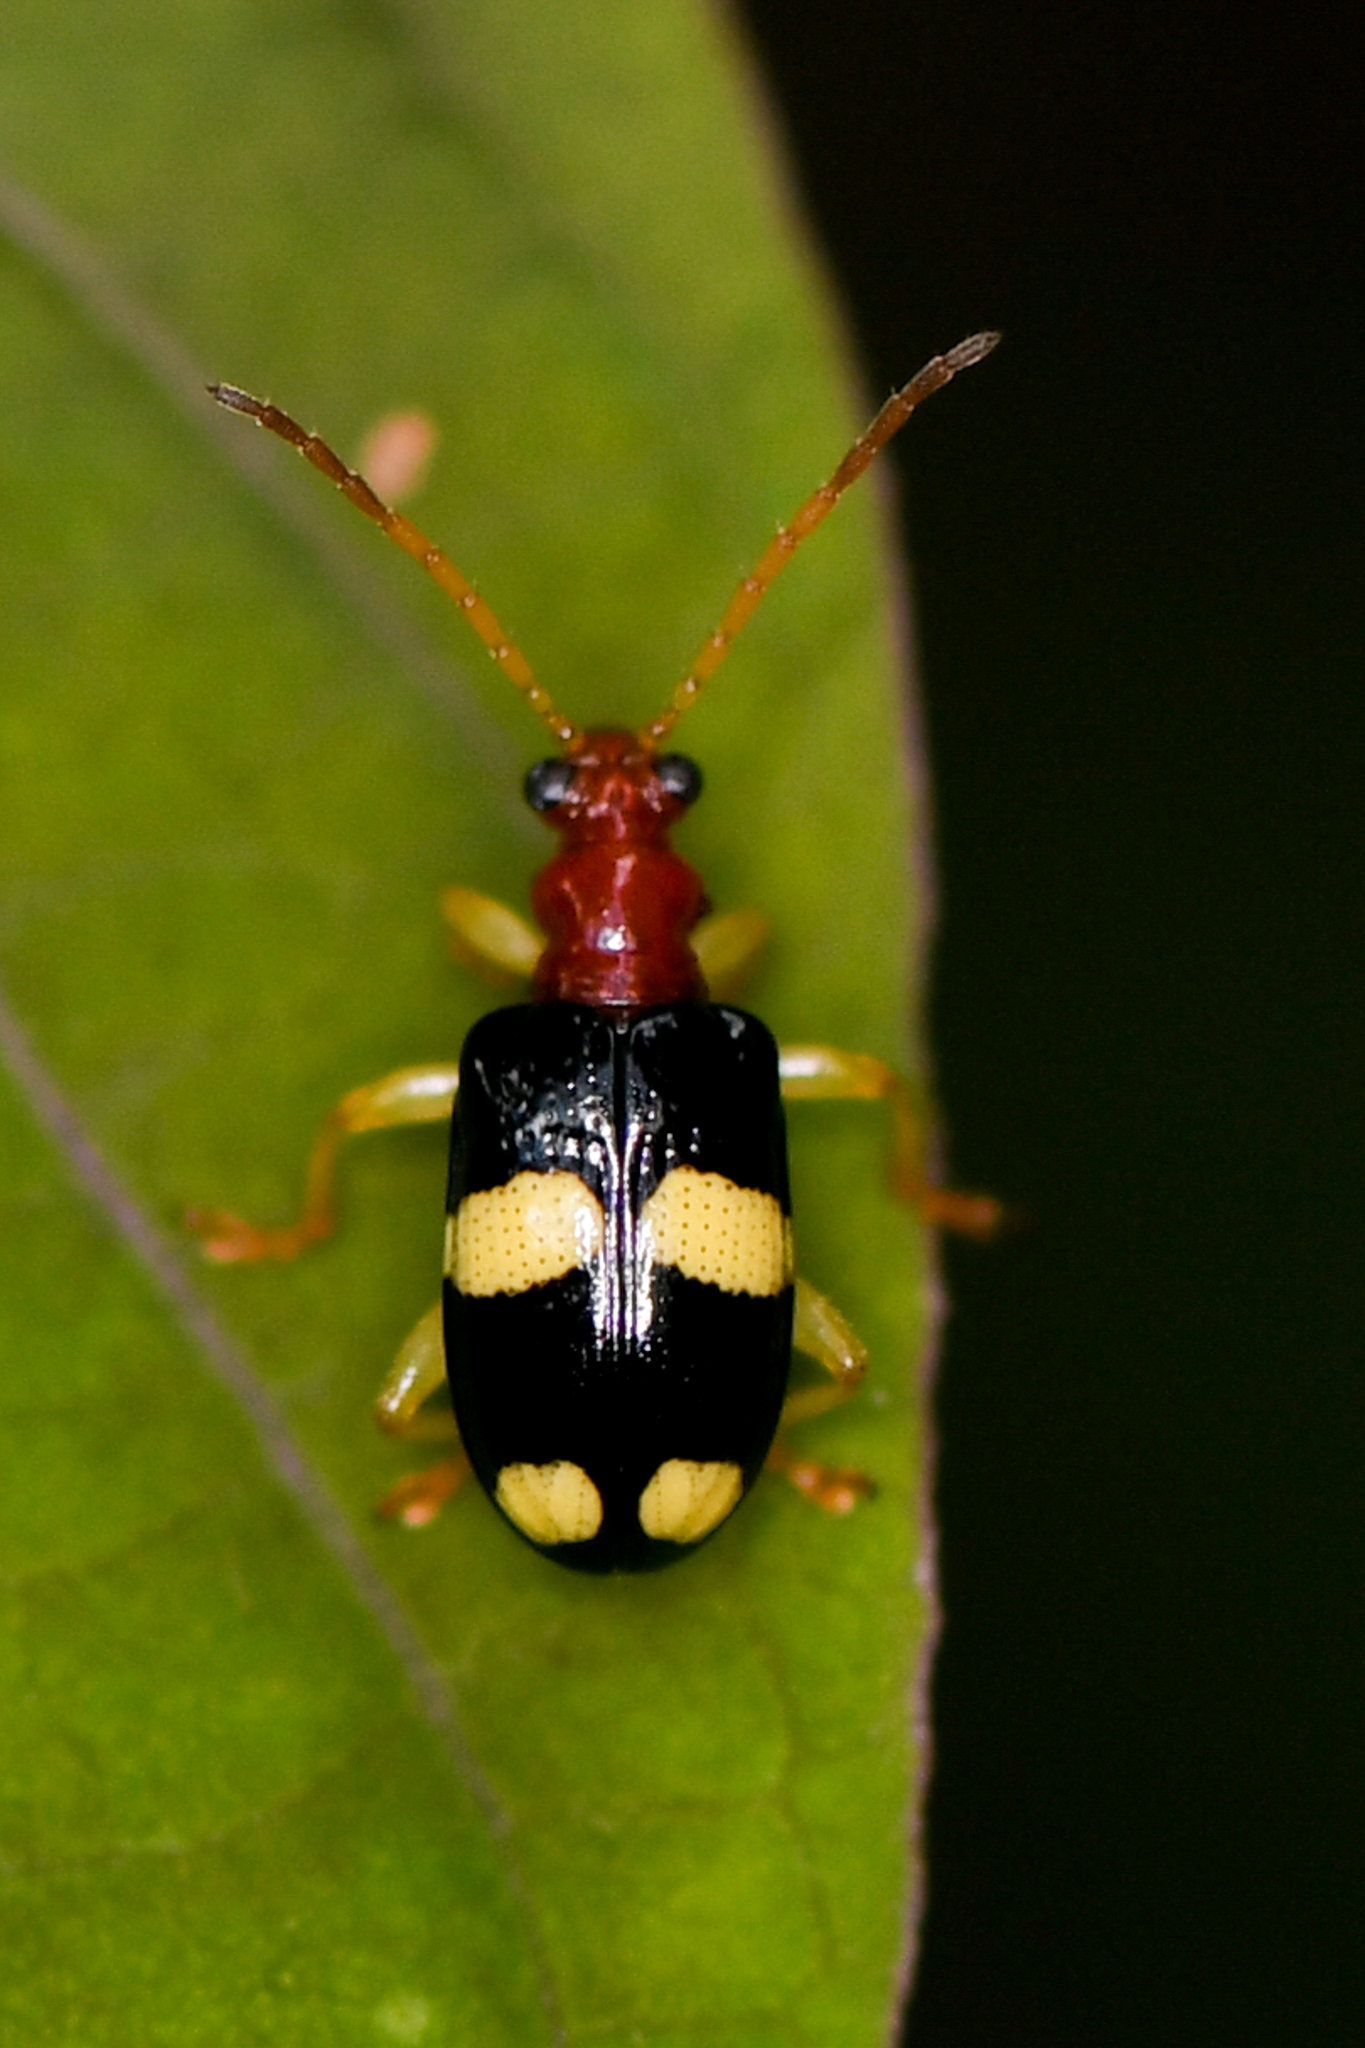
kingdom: Animalia
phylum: Arthropoda
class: Insecta
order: Coleoptera
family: Chrysomelidae
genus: Lema
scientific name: Lema bitaeniata
